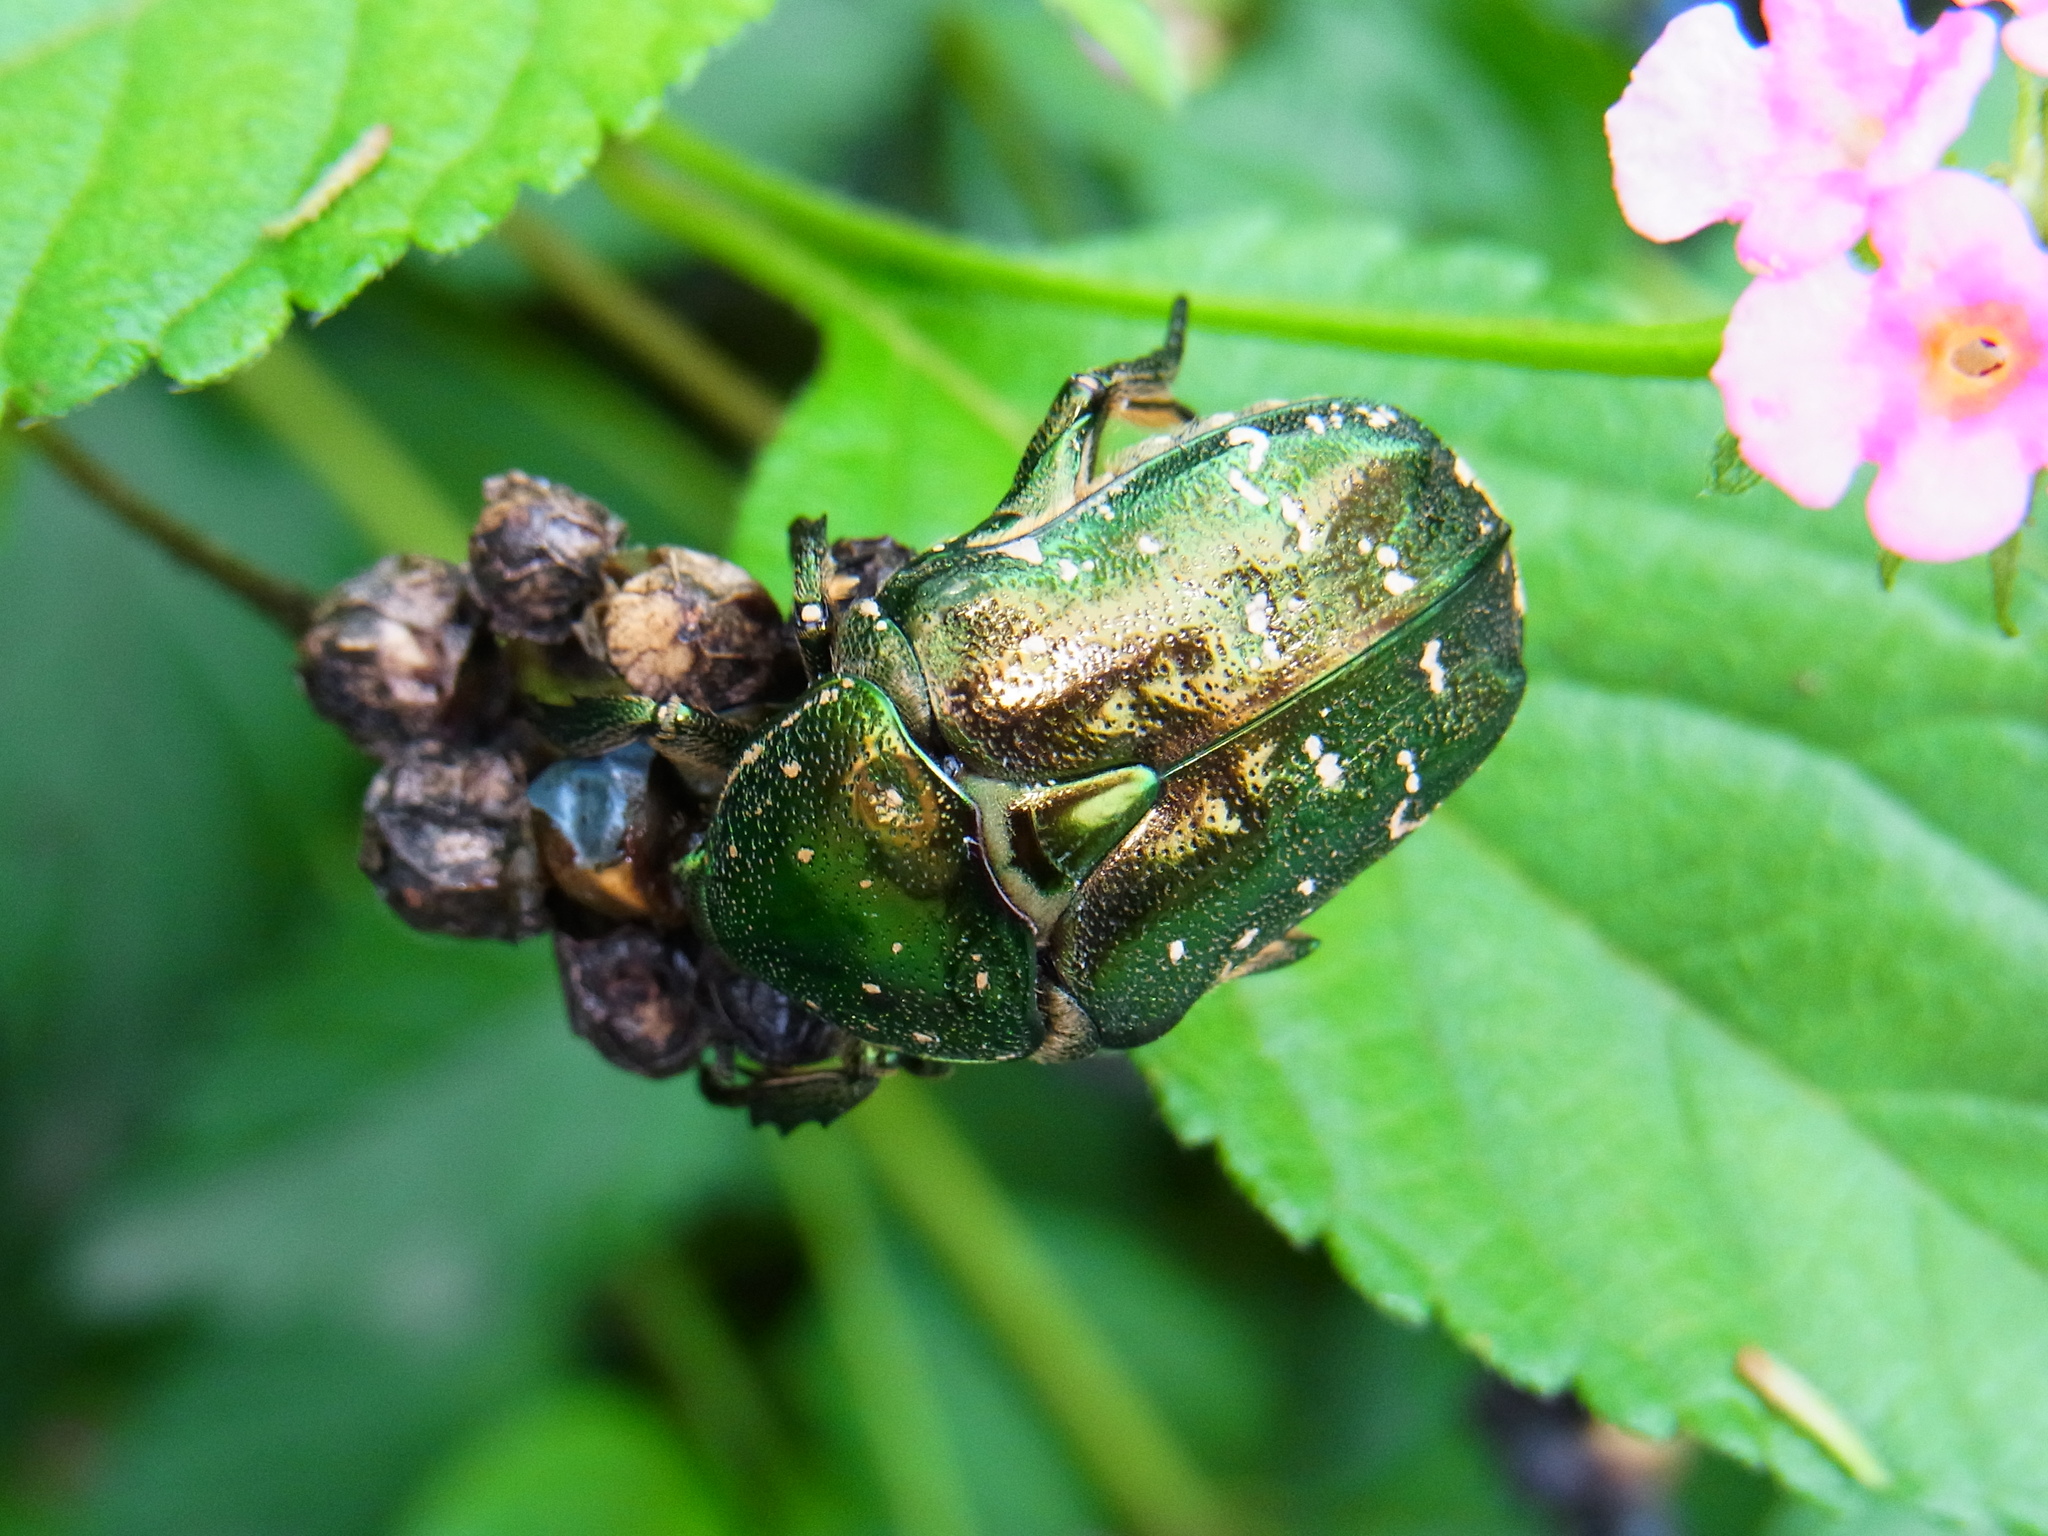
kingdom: Animalia
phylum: Arthropoda
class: Insecta
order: Coleoptera
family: Scarabaeidae
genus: Protaetia
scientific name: Protaetia orientalis
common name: Oriental flower beetle
